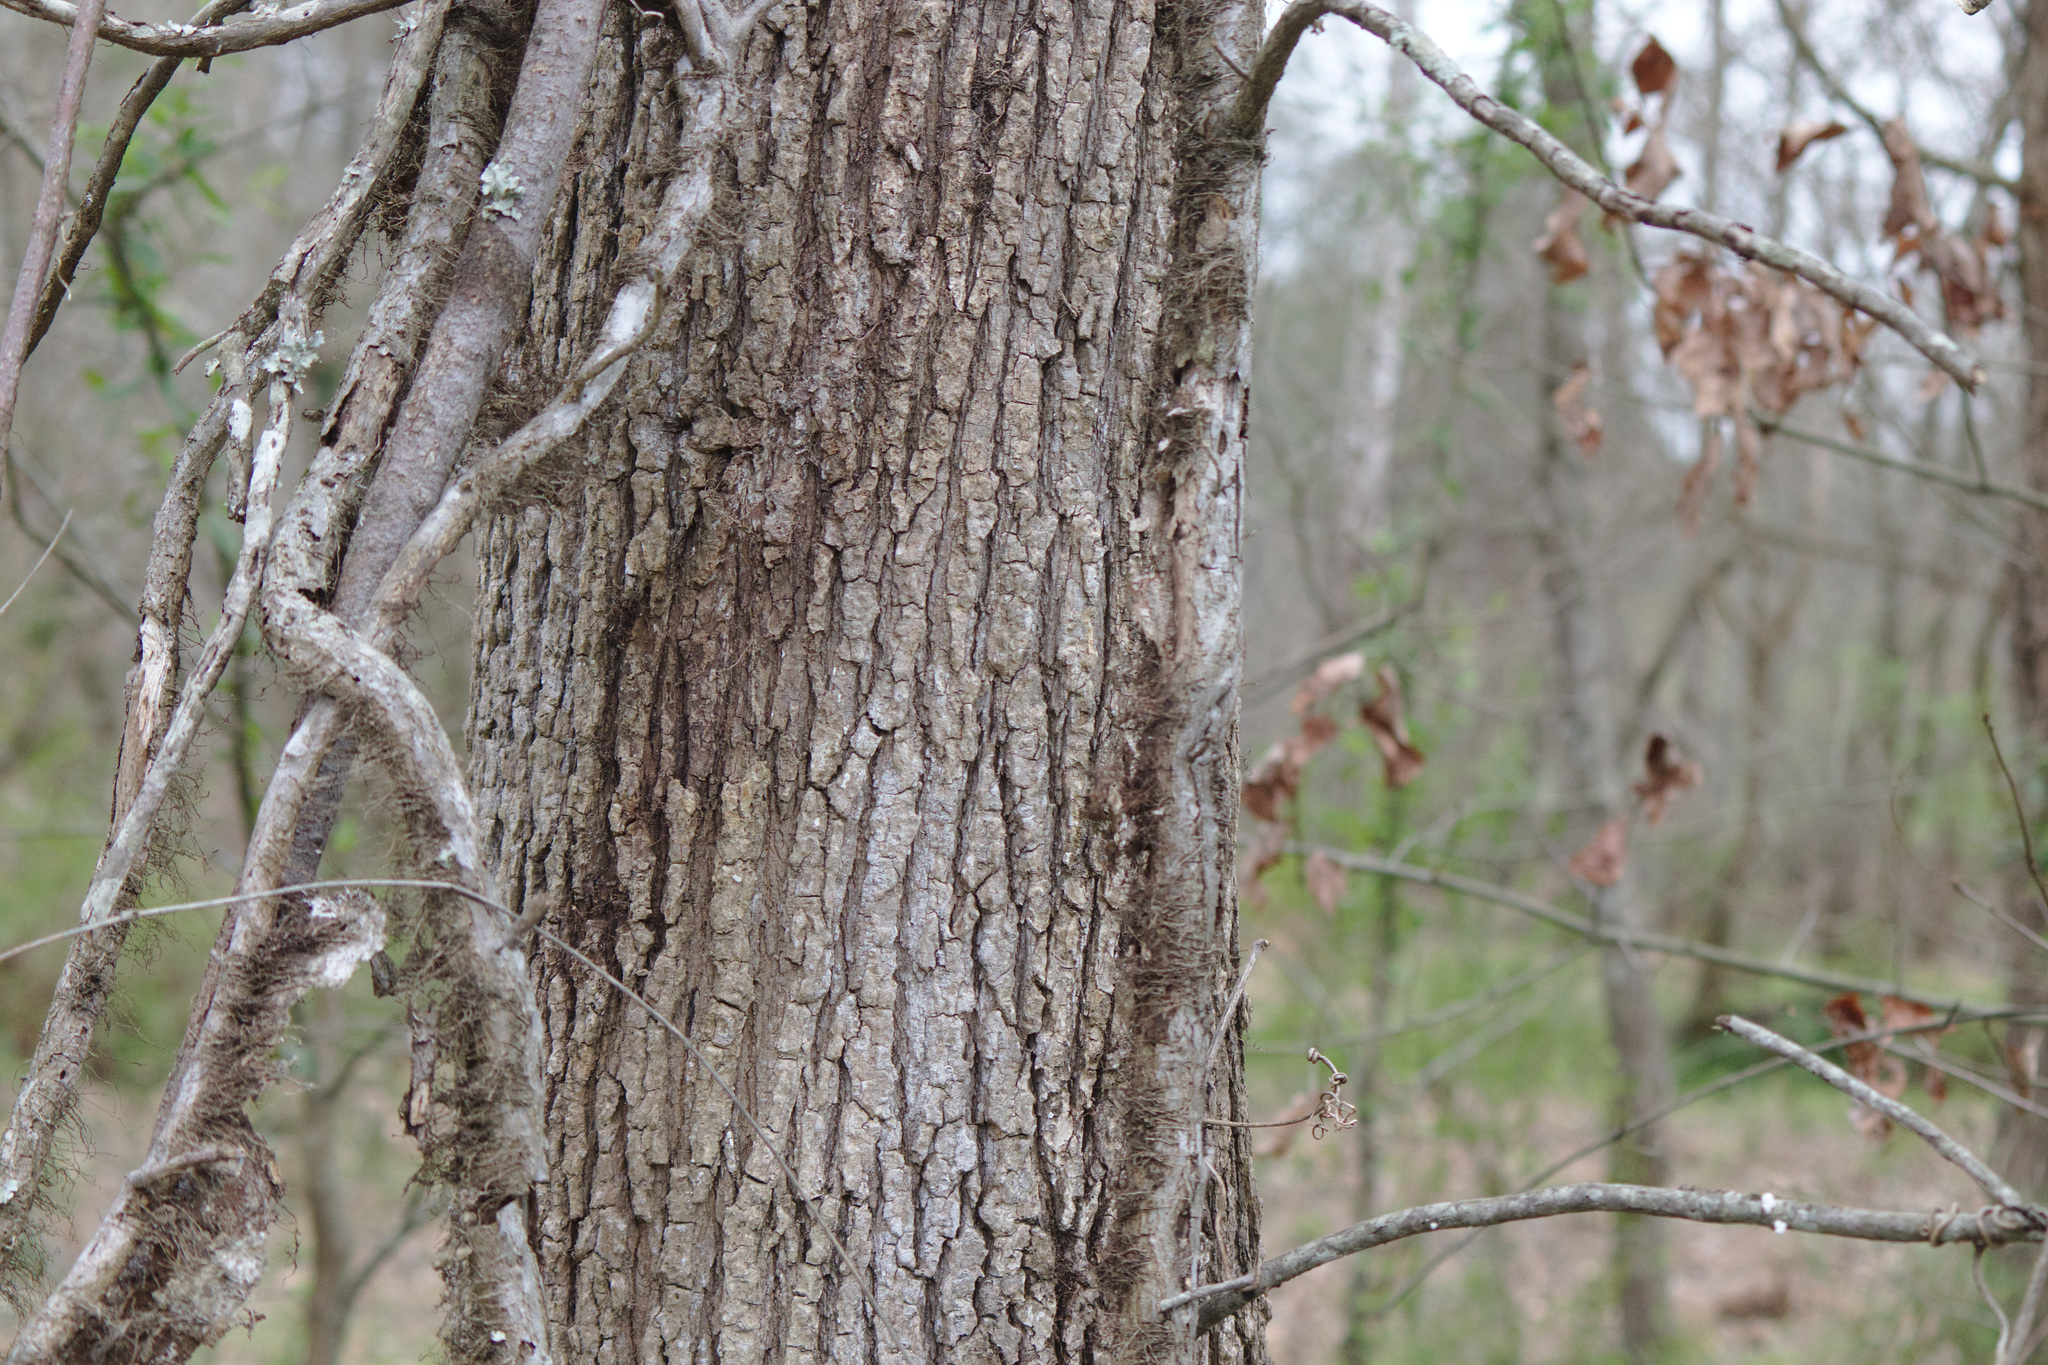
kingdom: Plantae
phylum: Tracheophyta
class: Magnoliopsida
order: Sapindales
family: Anacardiaceae
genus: Toxicodendron
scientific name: Toxicodendron radicans
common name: Poison ivy
